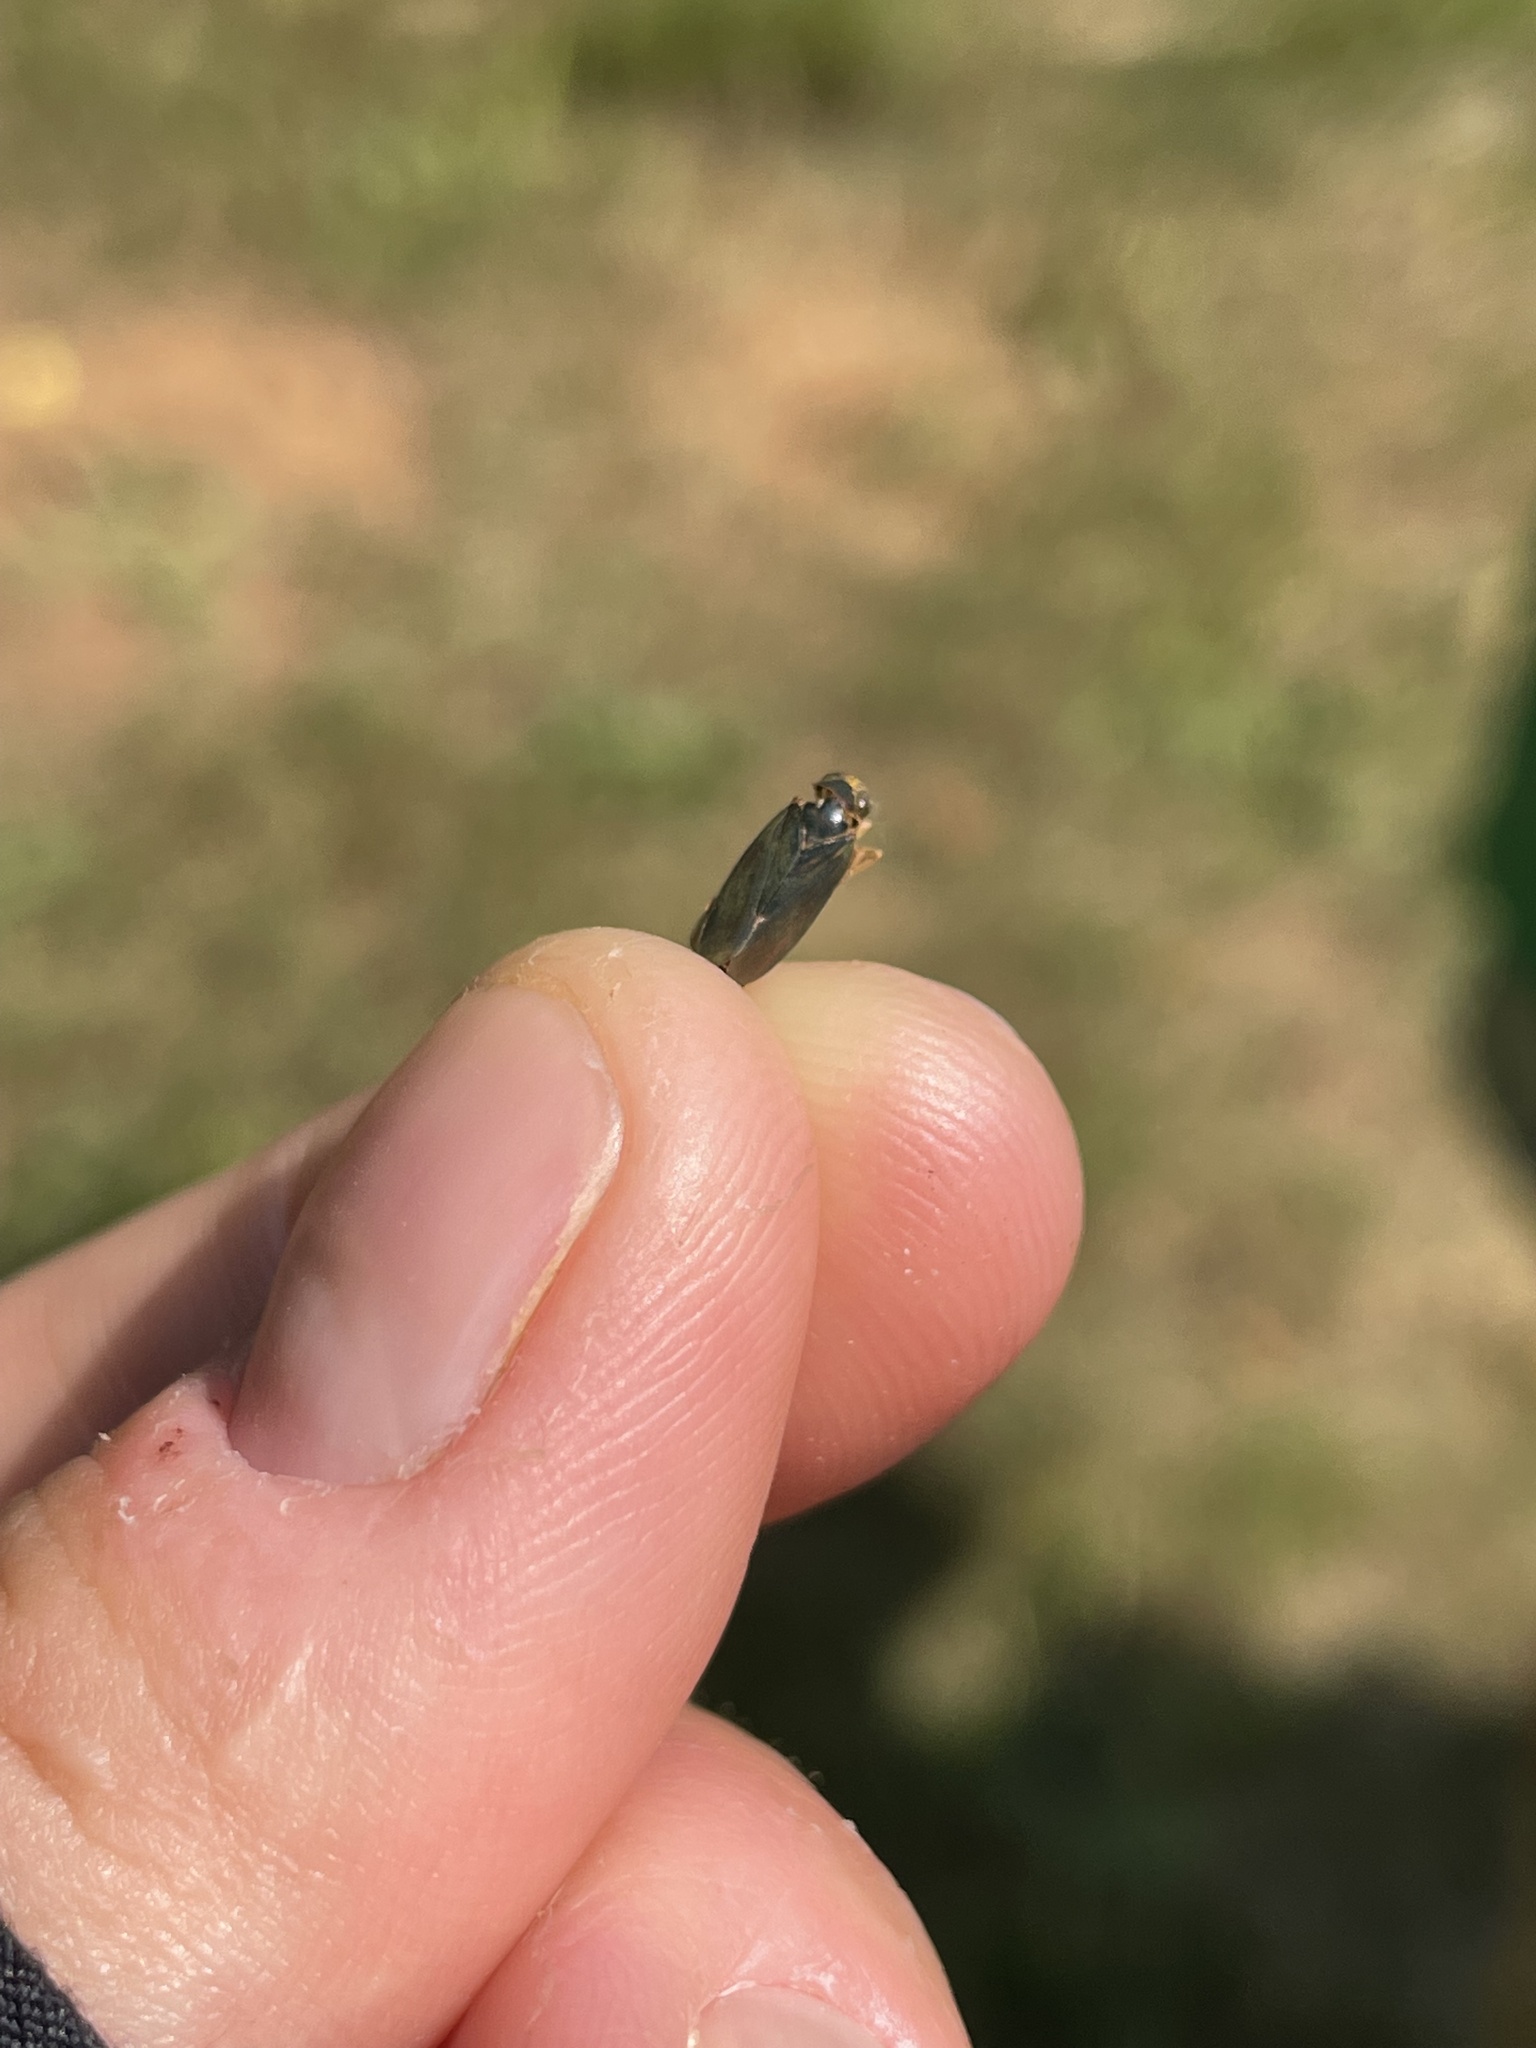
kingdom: Animalia
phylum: Arthropoda
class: Insecta
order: Hemiptera
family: Cicadellidae
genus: Jikradia
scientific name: Jikradia olitoria
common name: Coppery leafhopper
